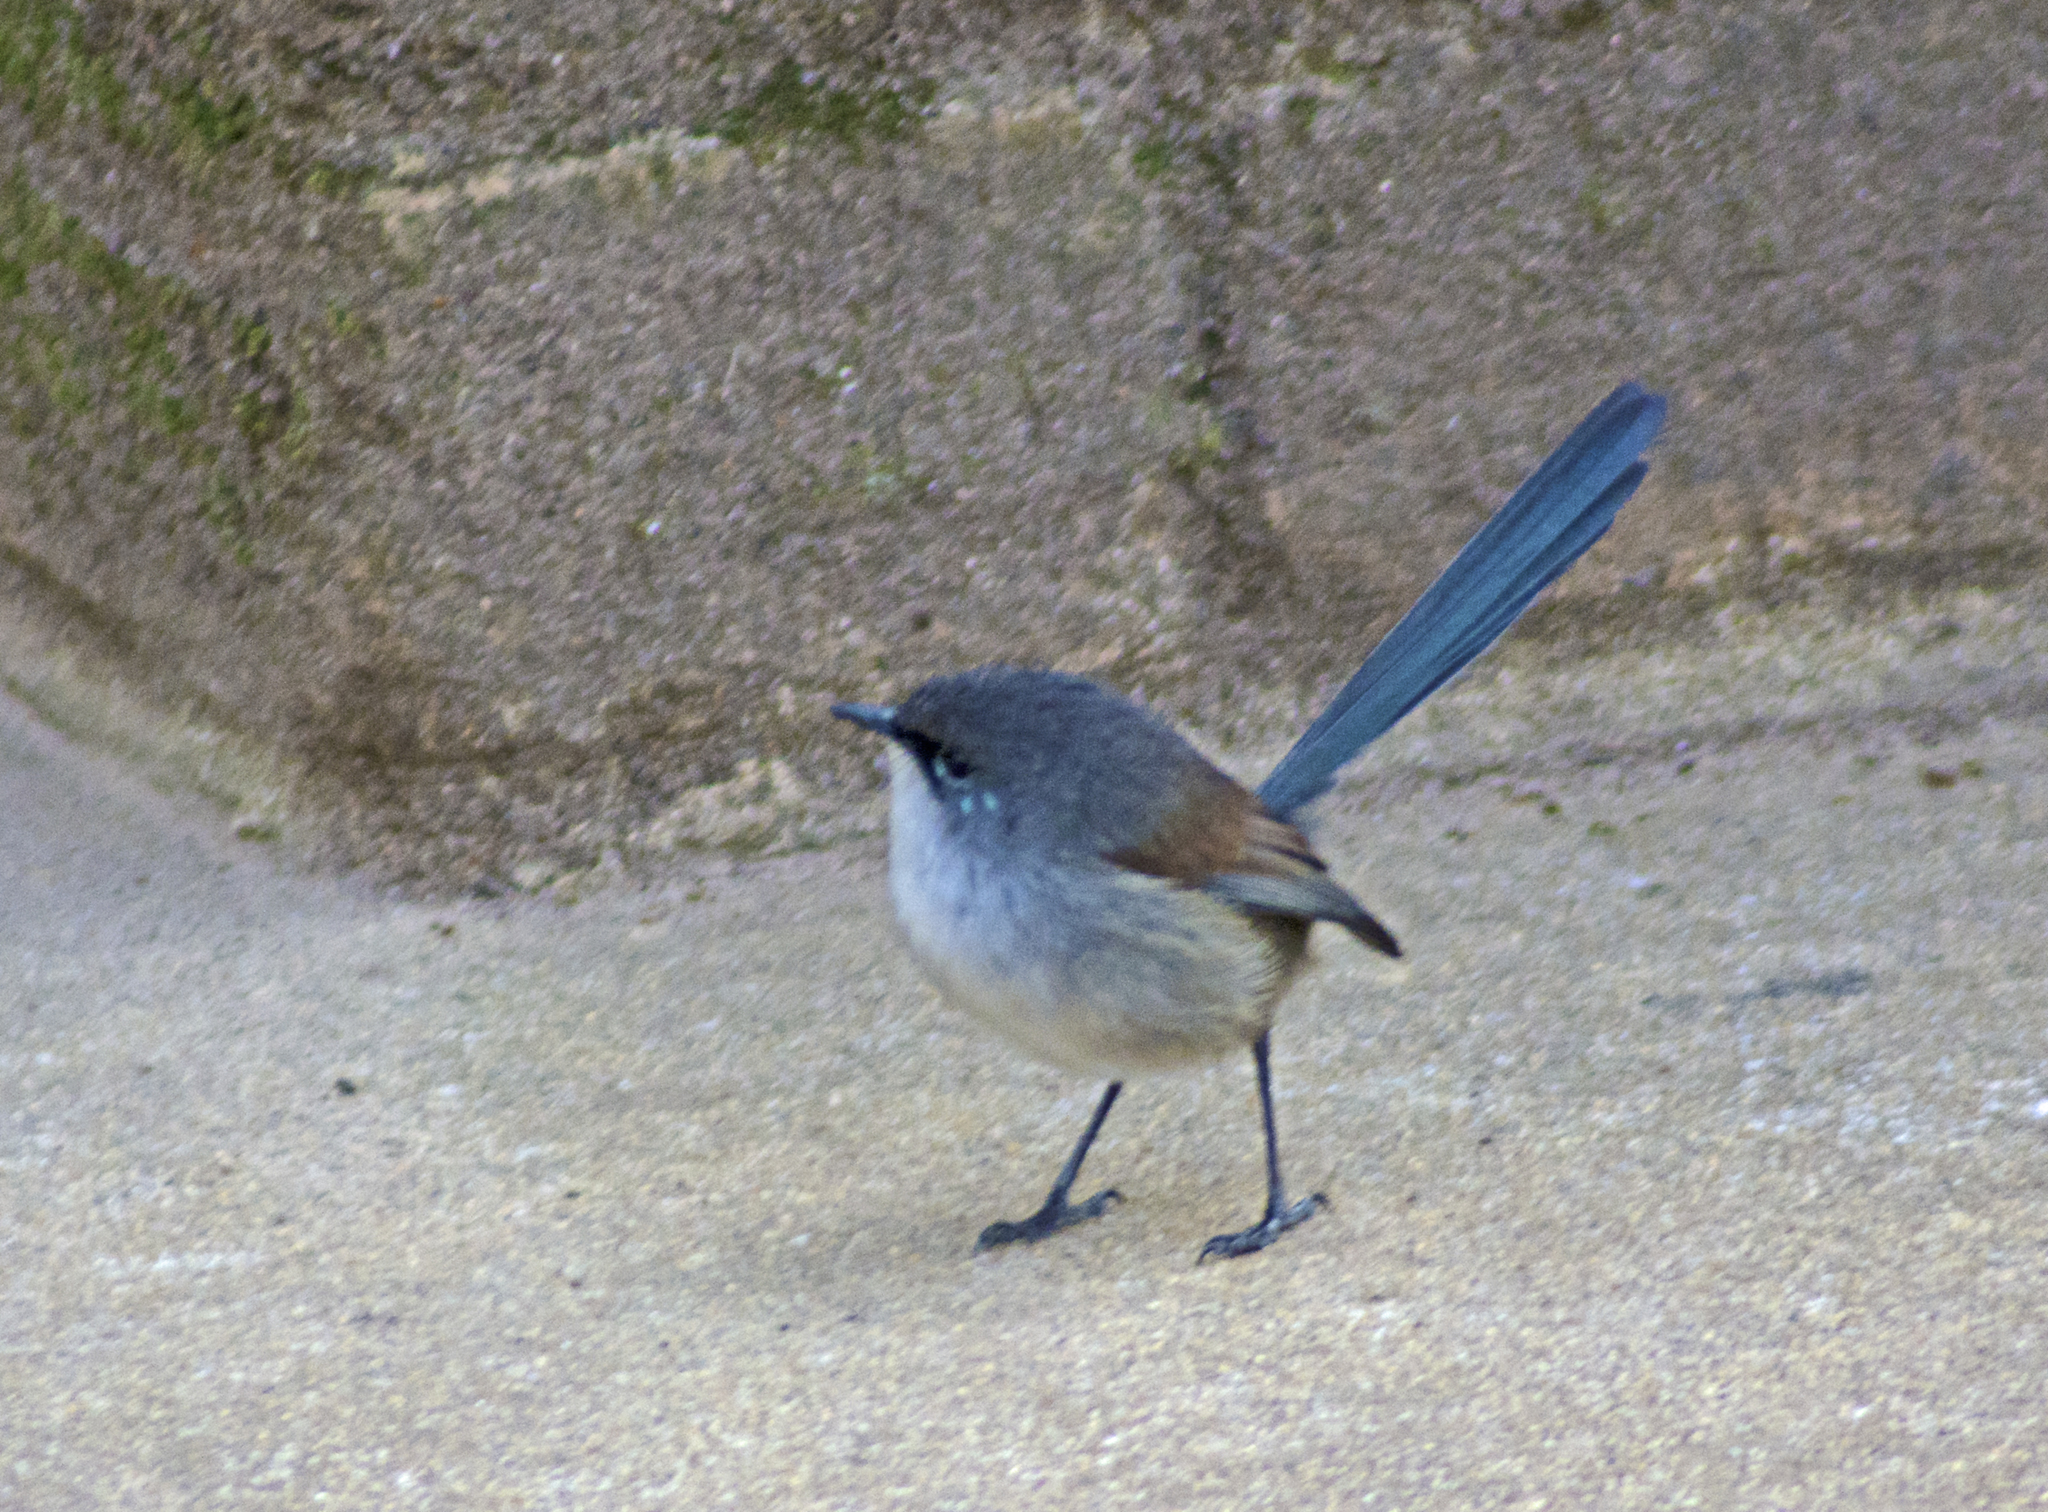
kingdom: Animalia
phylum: Chordata
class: Aves
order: Passeriformes
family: Maluridae
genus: Malurus
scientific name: Malurus pulcherrimus
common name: Blue-breasted fairywren
